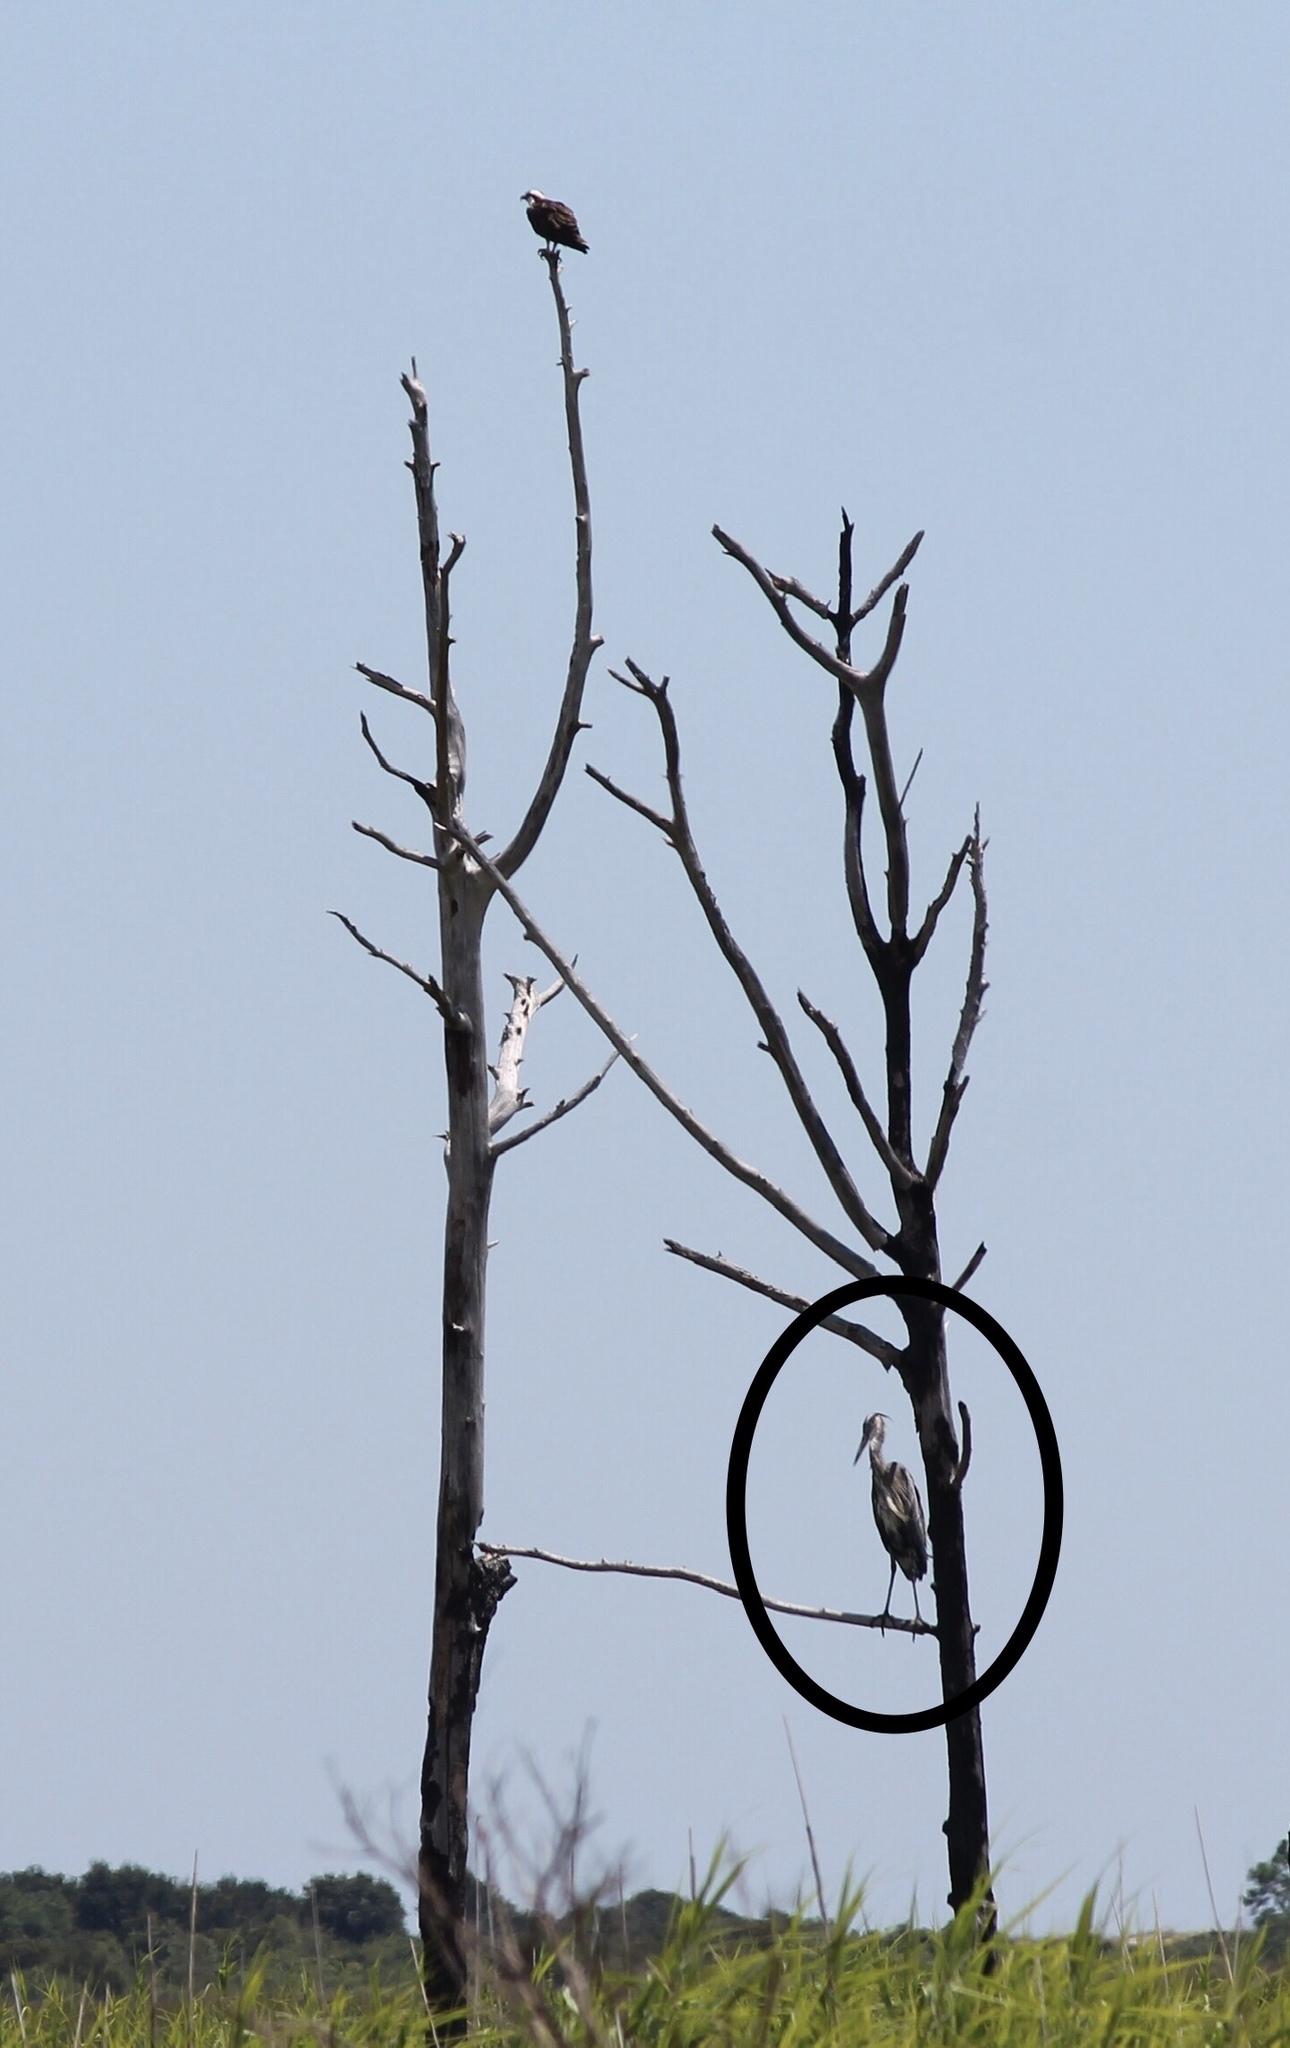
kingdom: Animalia
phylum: Chordata
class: Aves
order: Pelecaniformes
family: Ardeidae
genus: Ardea
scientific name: Ardea herodias
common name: Great blue heron
